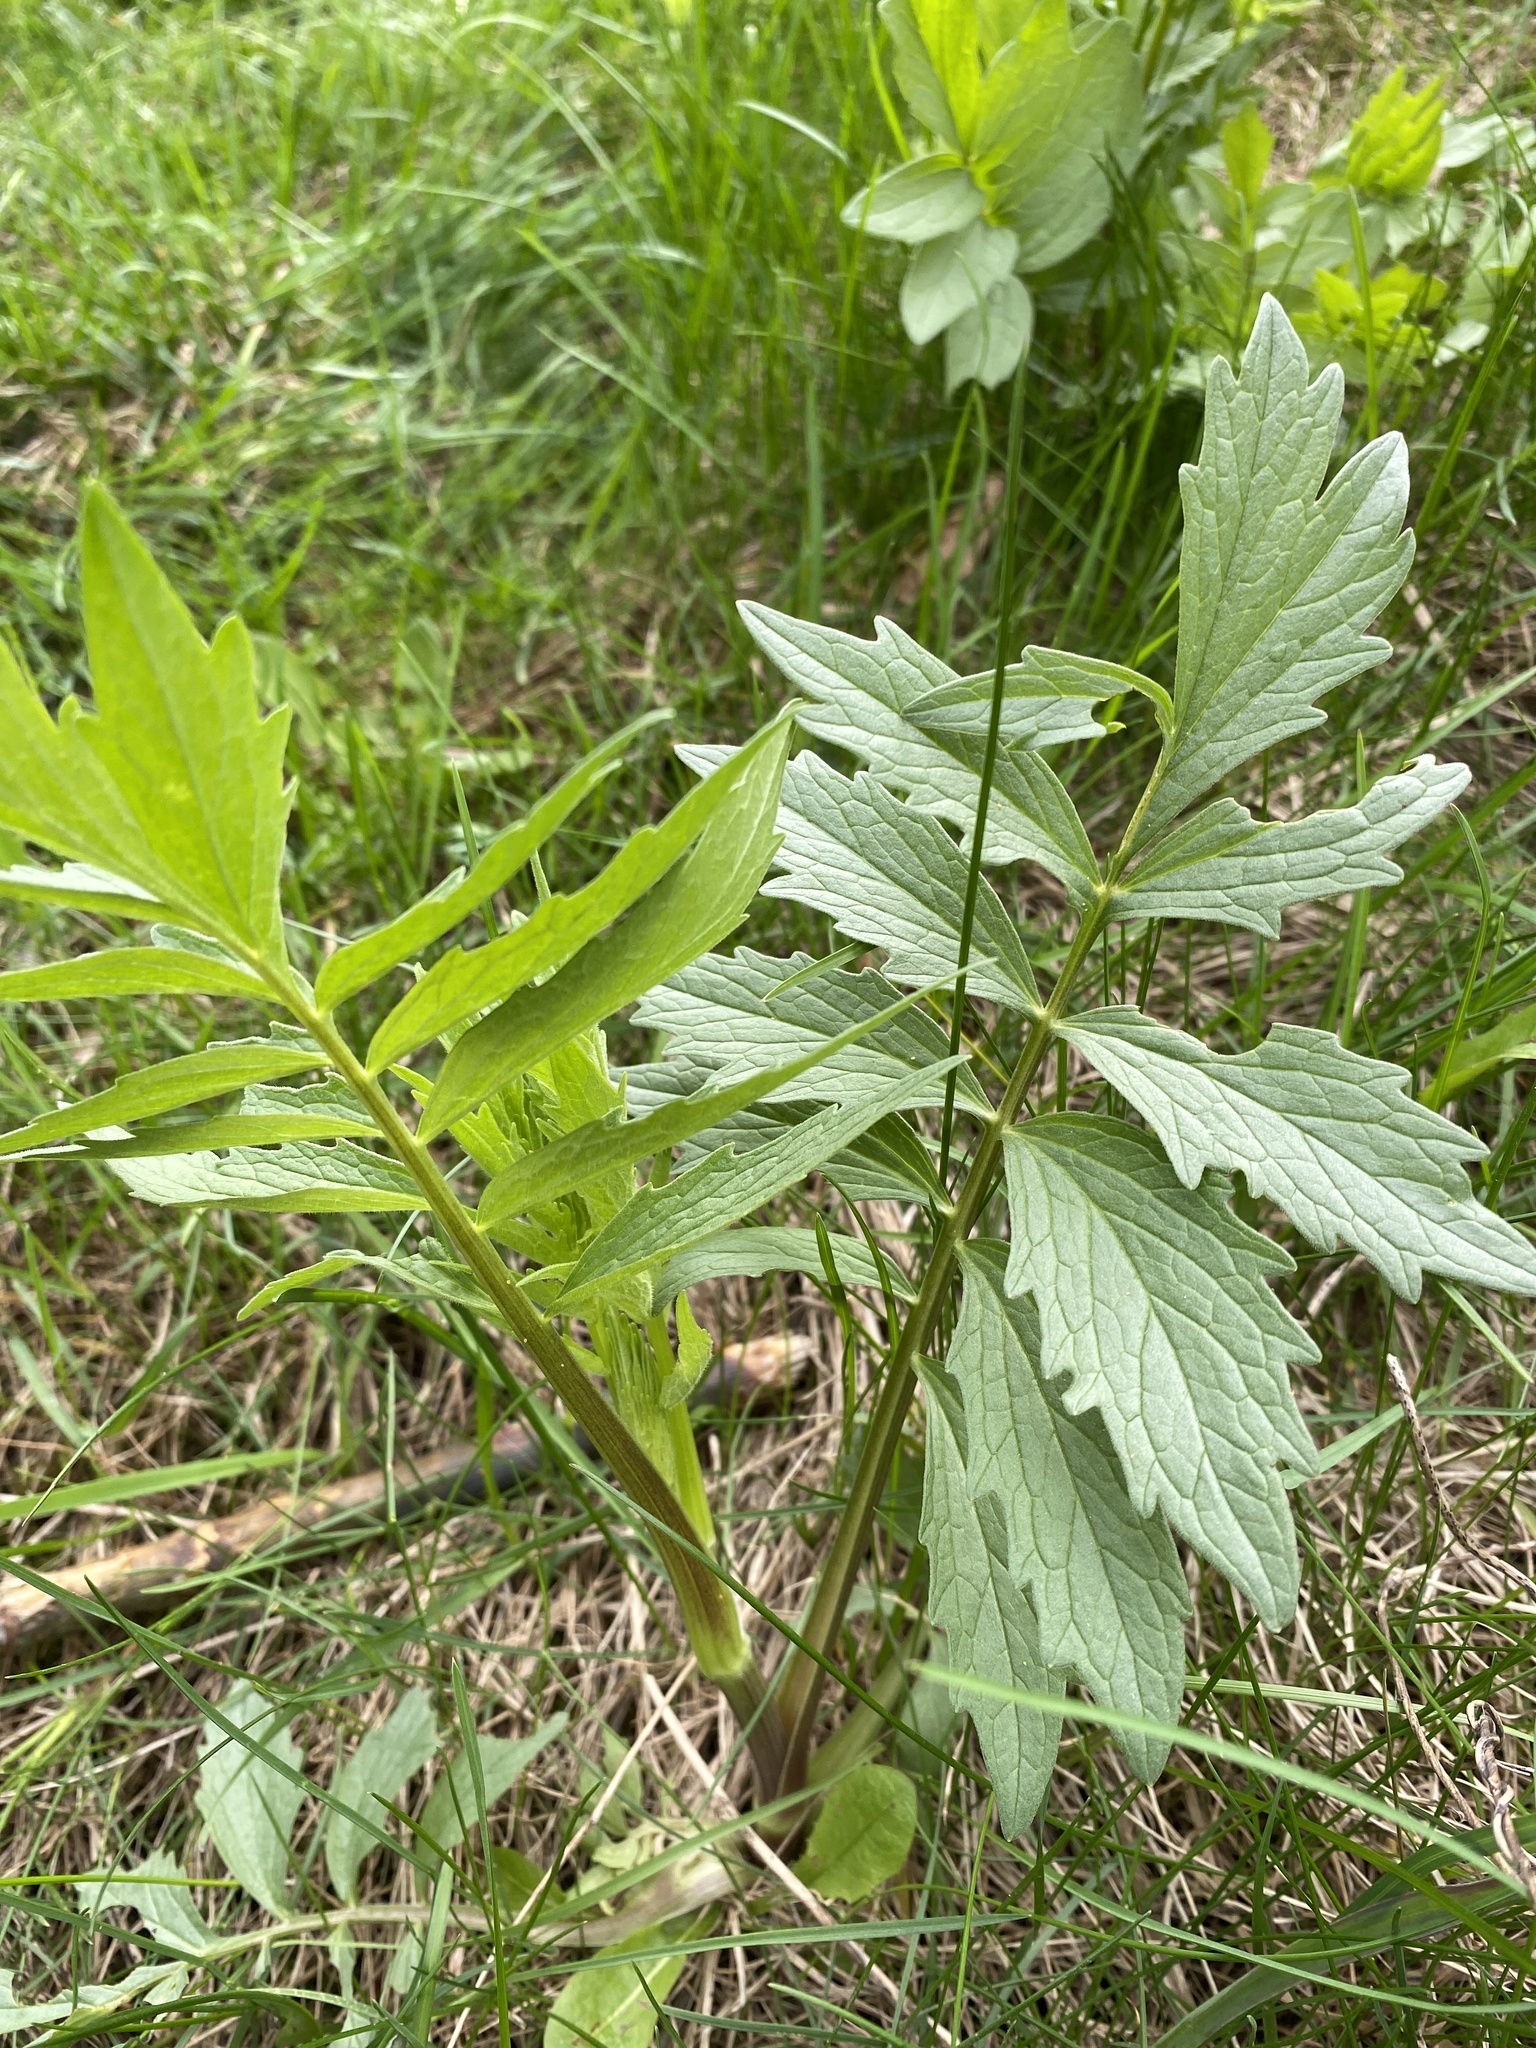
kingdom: Plantae
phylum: Tracheophyta
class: Magnoliopsida
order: Dipsacales
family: Caprifoliaceae
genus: Valeriana
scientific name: Valeriana officinalis
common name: Common valerian
